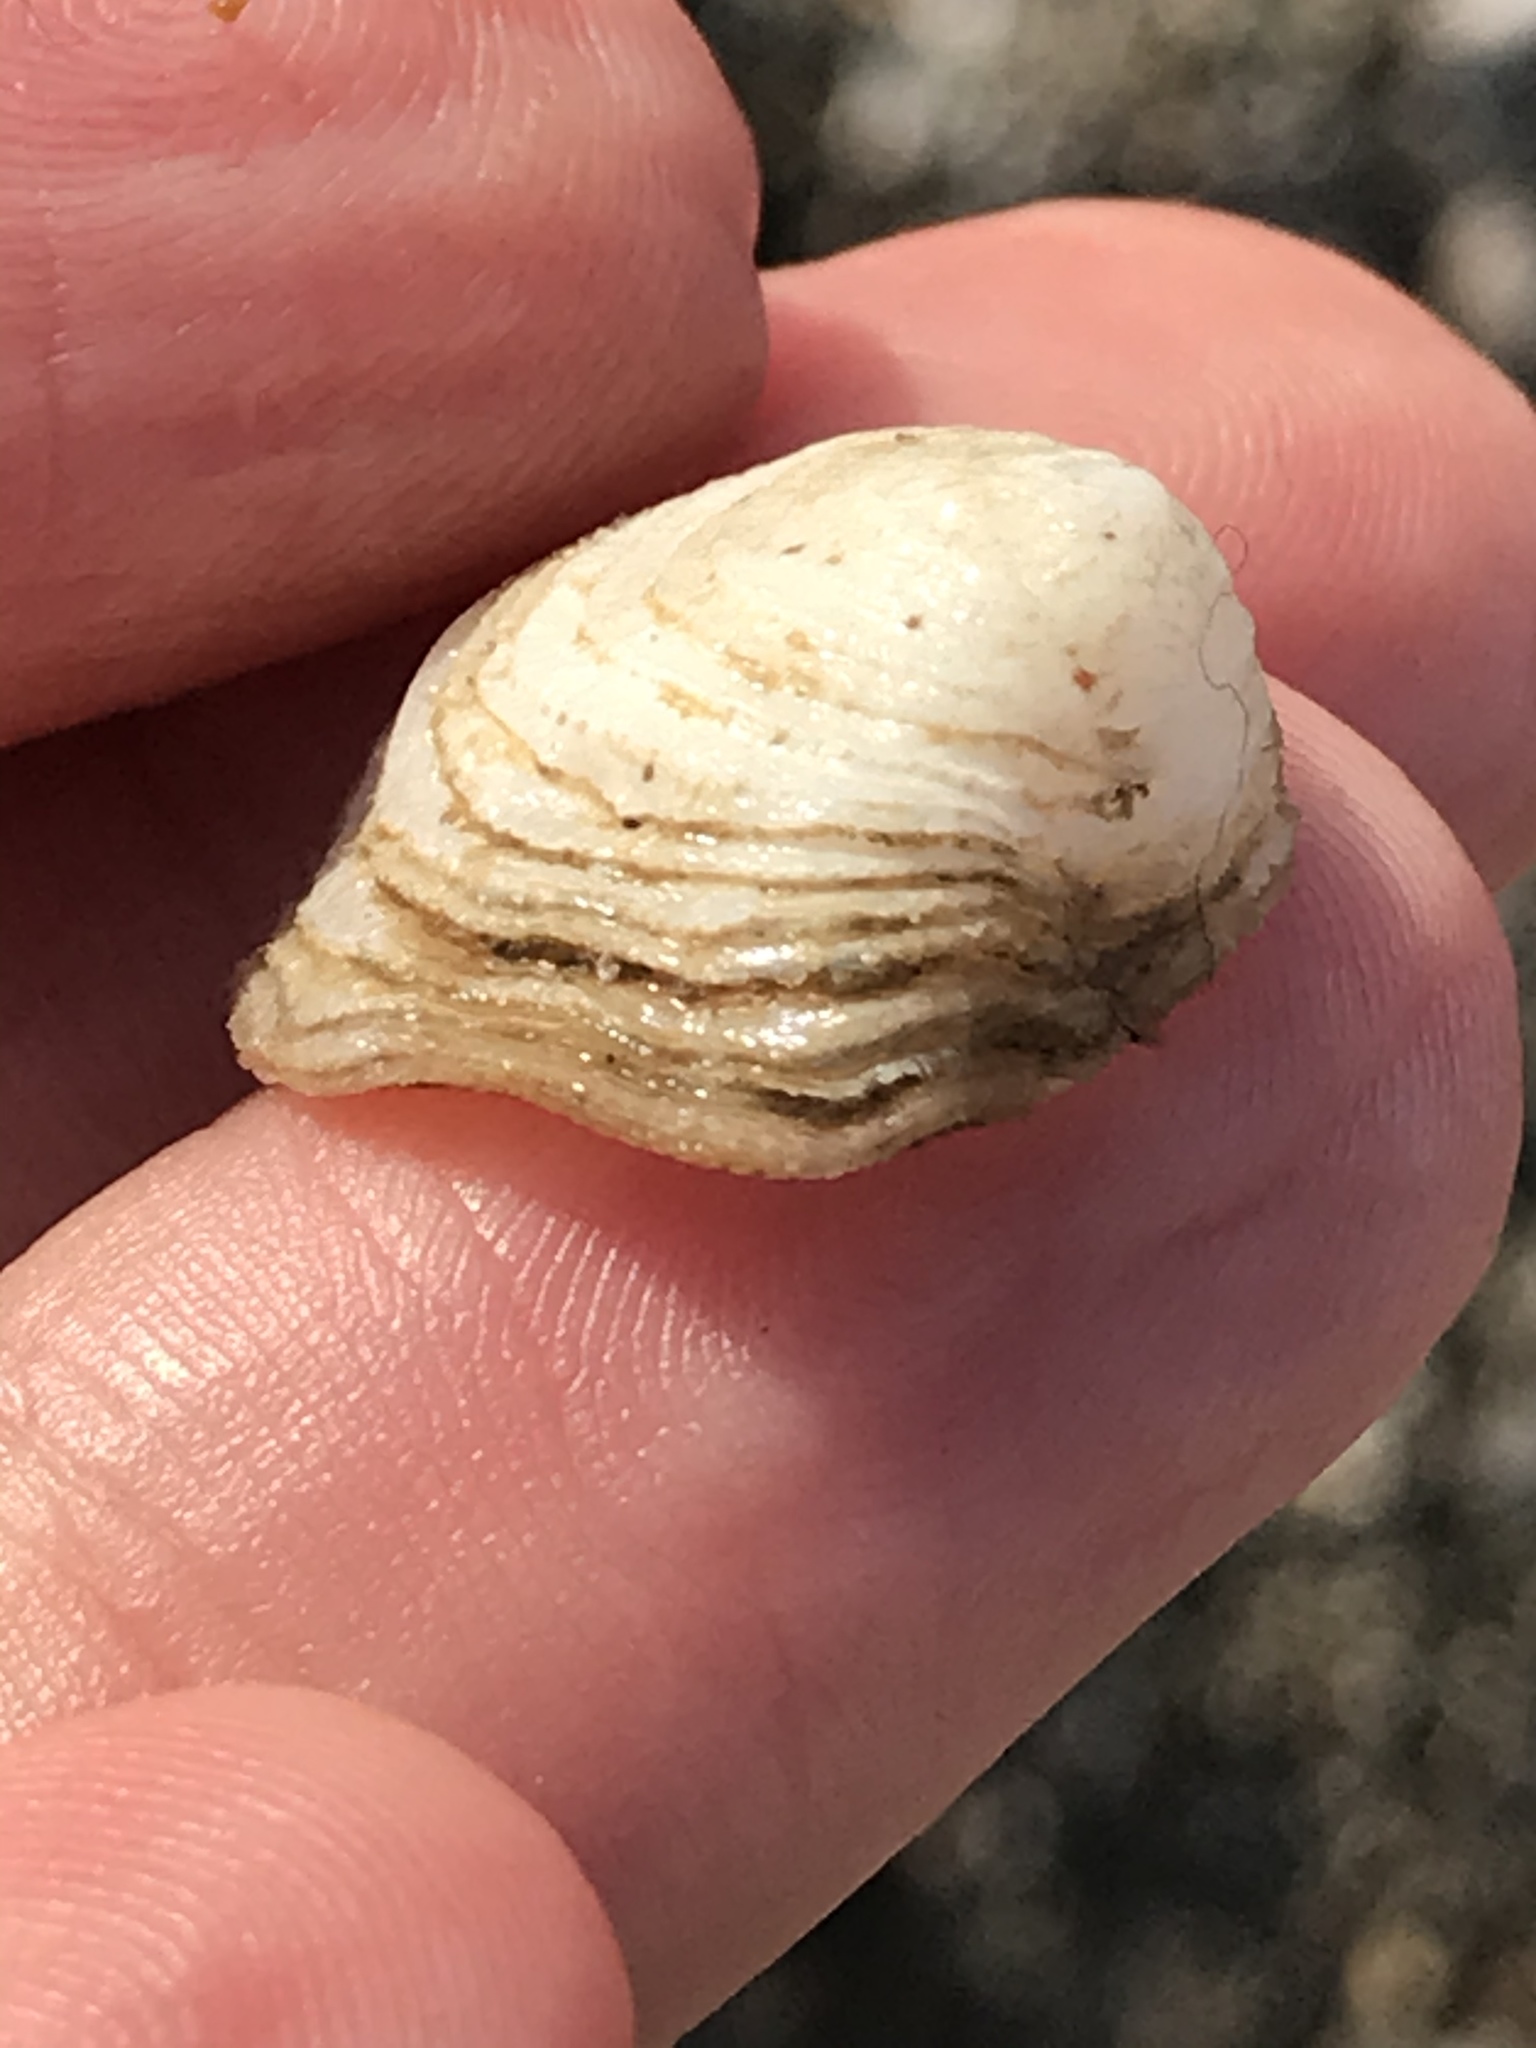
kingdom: Animalia
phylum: Mollusca
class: Gastropoda
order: Littorinimorpha
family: Hipponicidae
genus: Hipponix
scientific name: Hipponix panamensis
